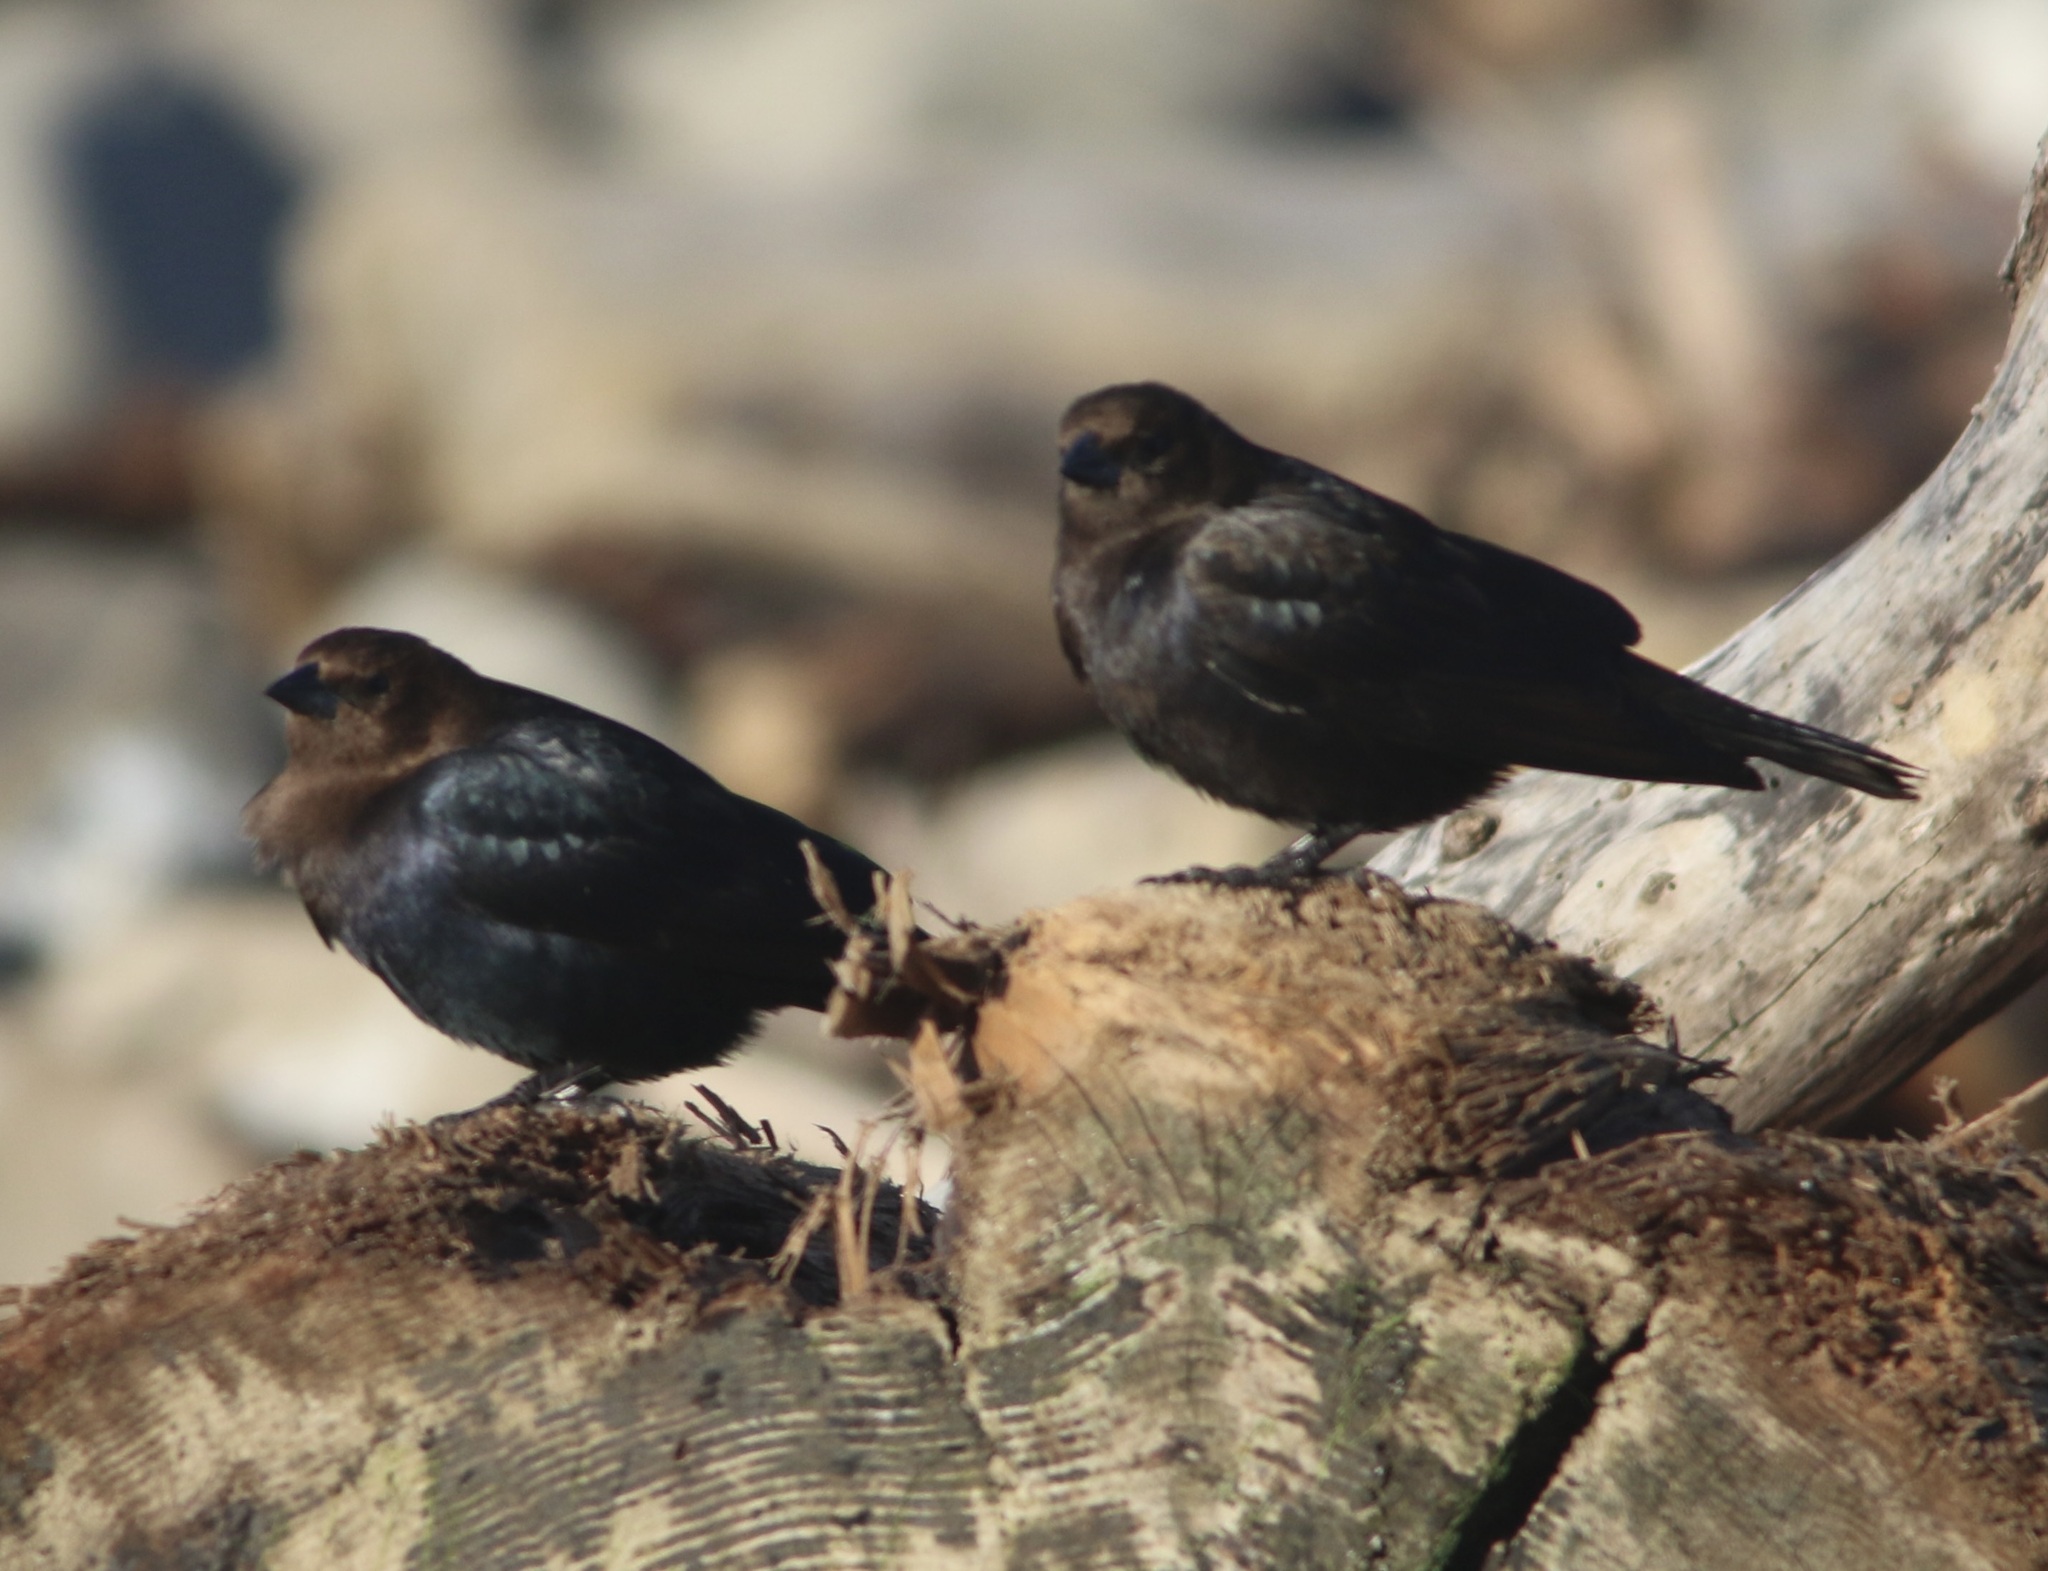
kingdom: Animalia
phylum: Chordata
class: Aves
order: Passeriformes
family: Icteridae
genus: Molothrus
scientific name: Molothrus ater
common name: Brown-headed cowbird
